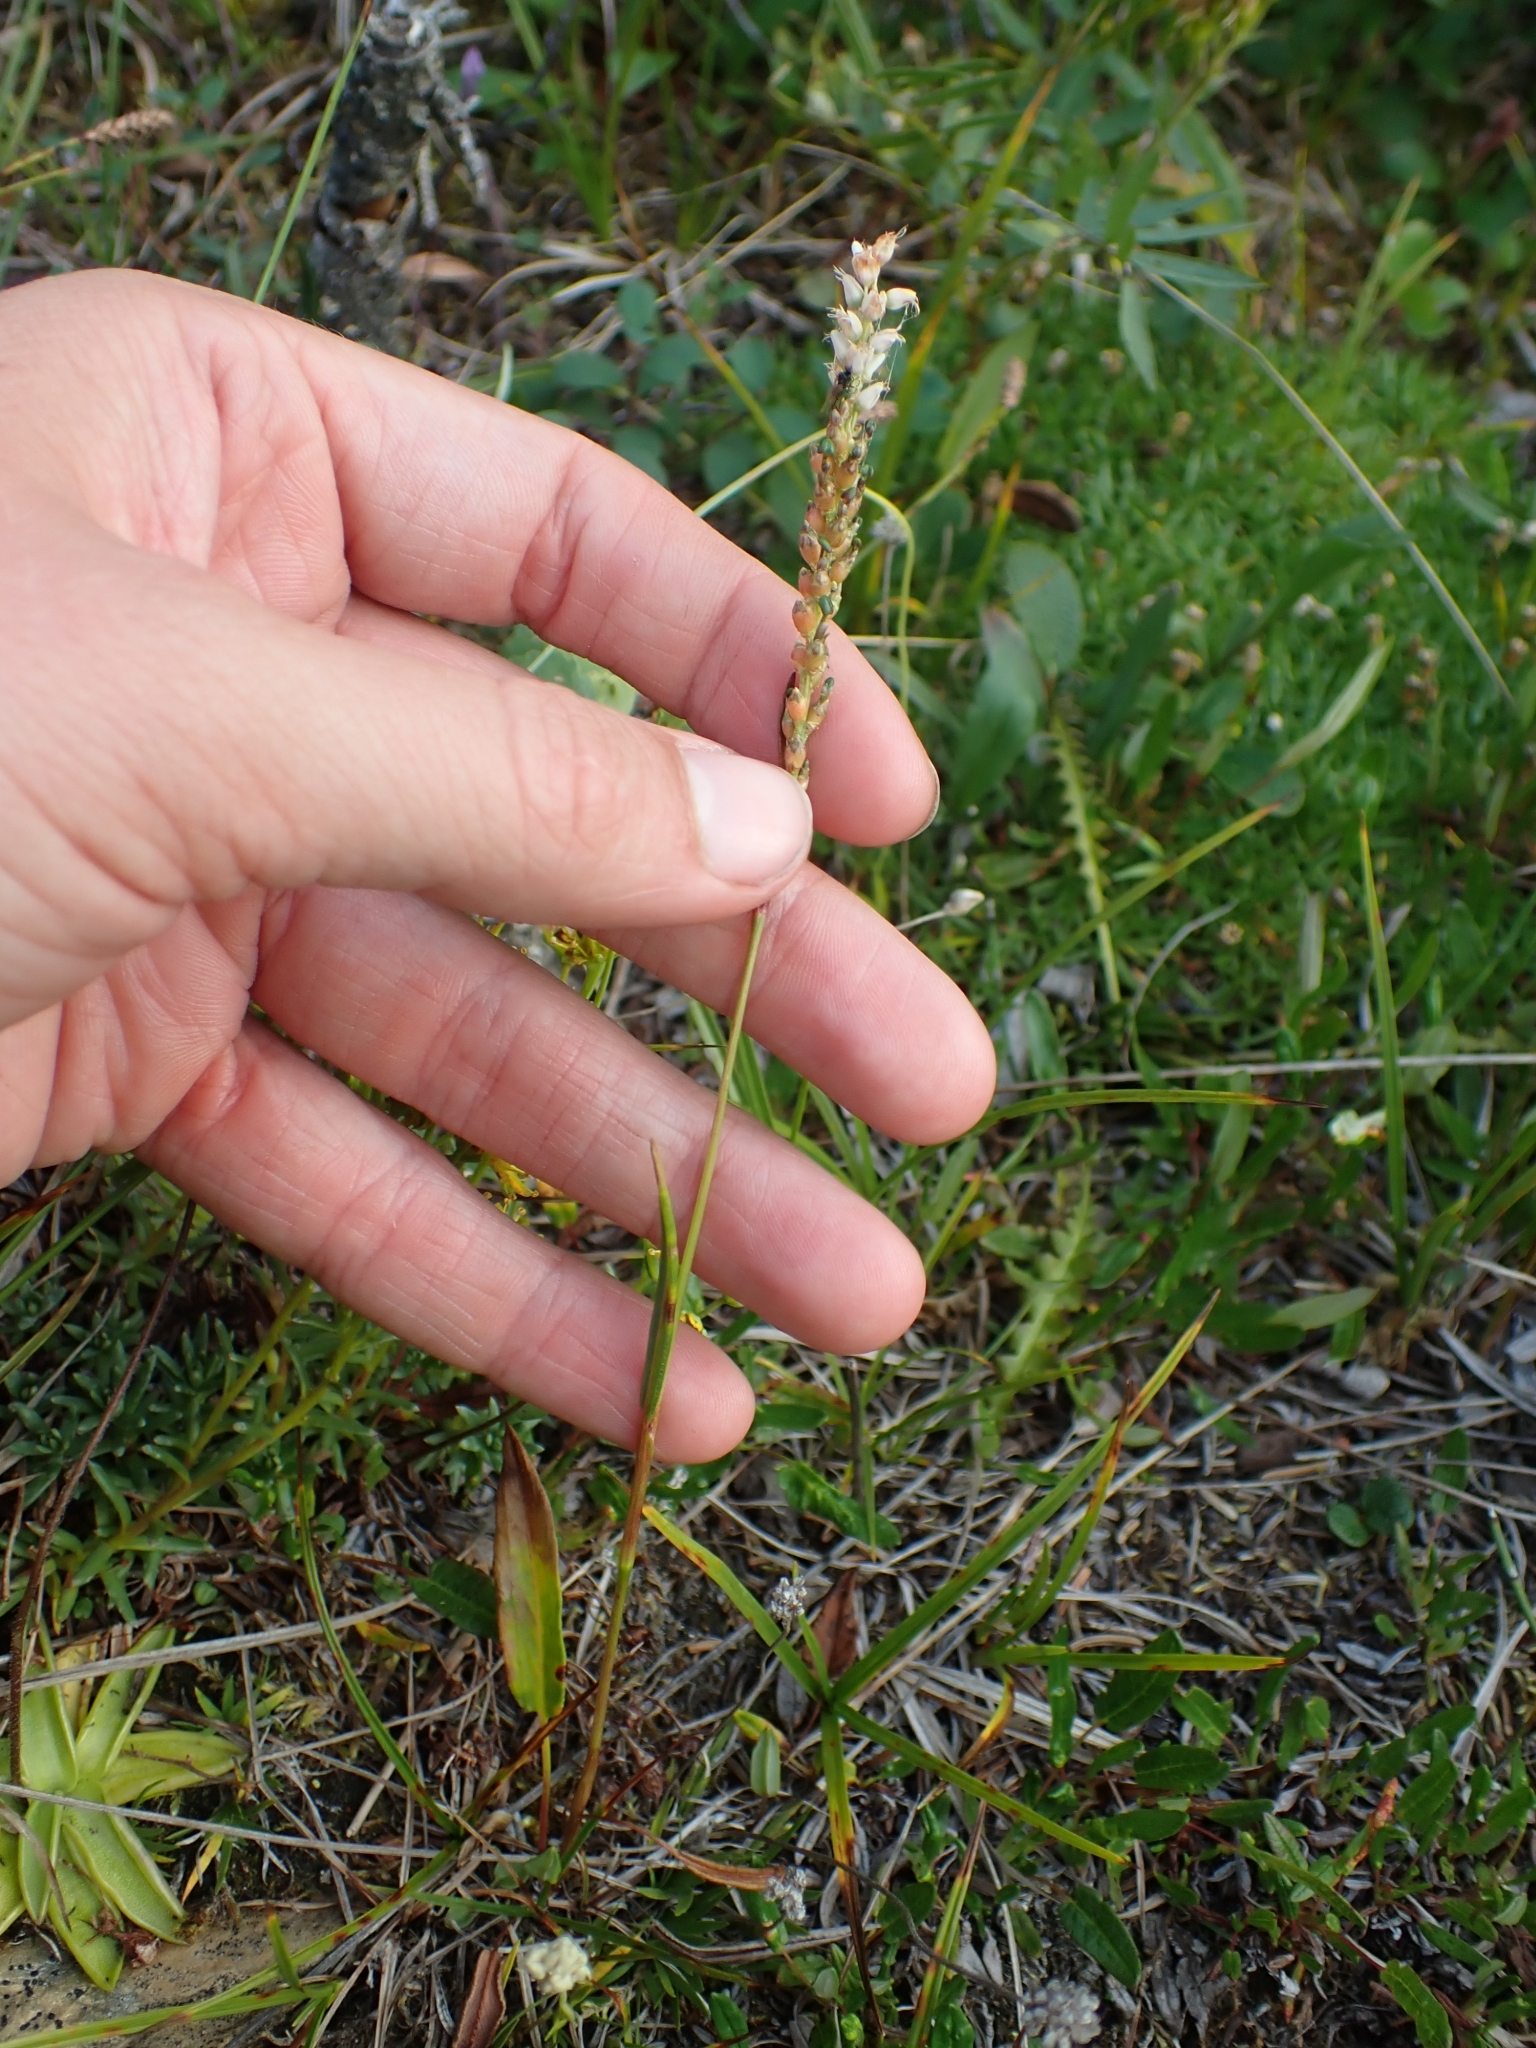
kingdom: Plantae
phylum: Tracheophyta
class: Magnoliopsida
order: Caryophyllales
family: Polygonaceae
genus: Bistorta
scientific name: Bistorta vivipara
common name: Alpine bistort
